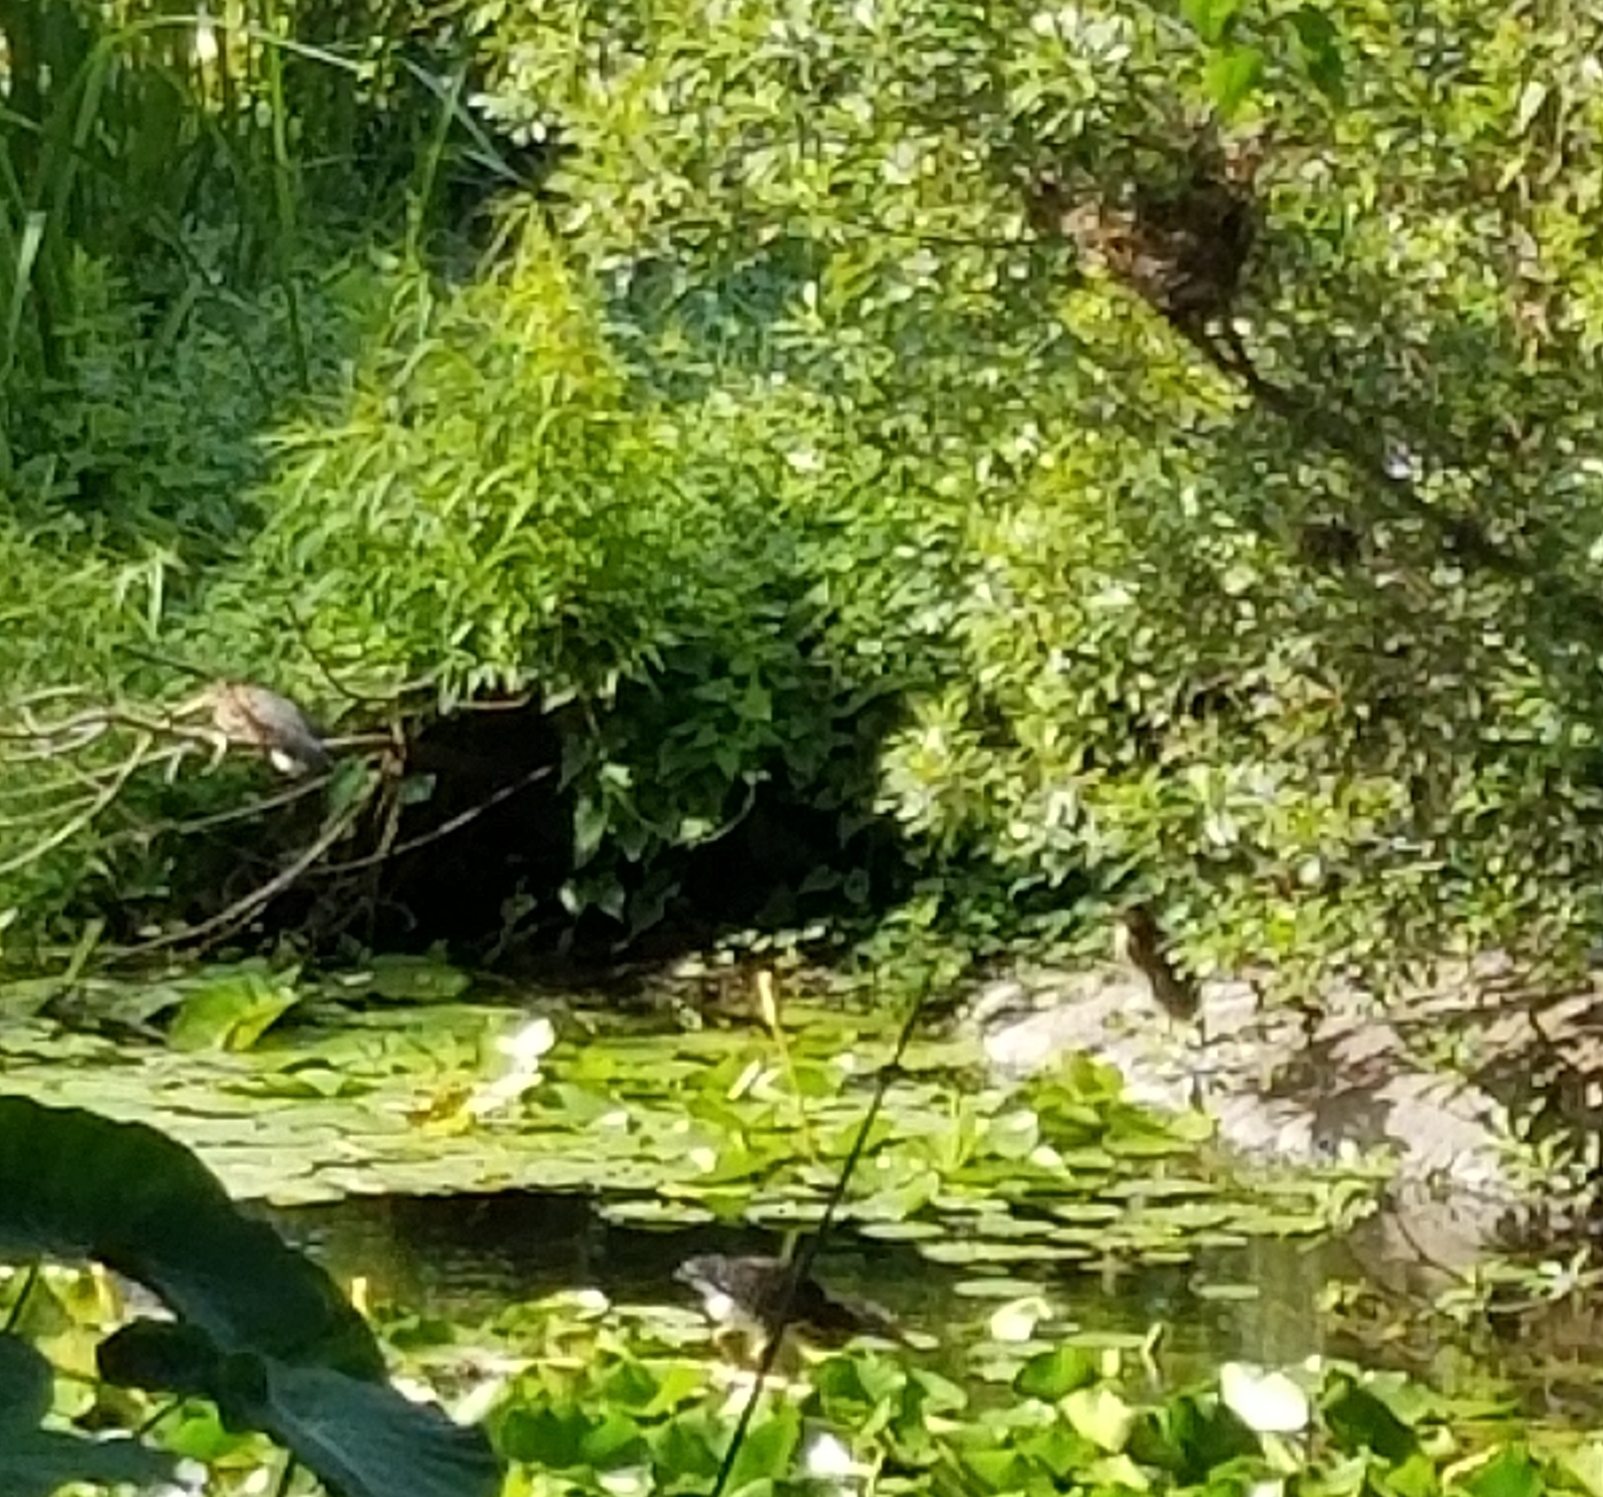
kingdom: Animalia
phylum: Chordata
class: Aves
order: Pelecaniformes
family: Ardeidae
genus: Butorides
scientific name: Butorides virescens
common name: Green heron
